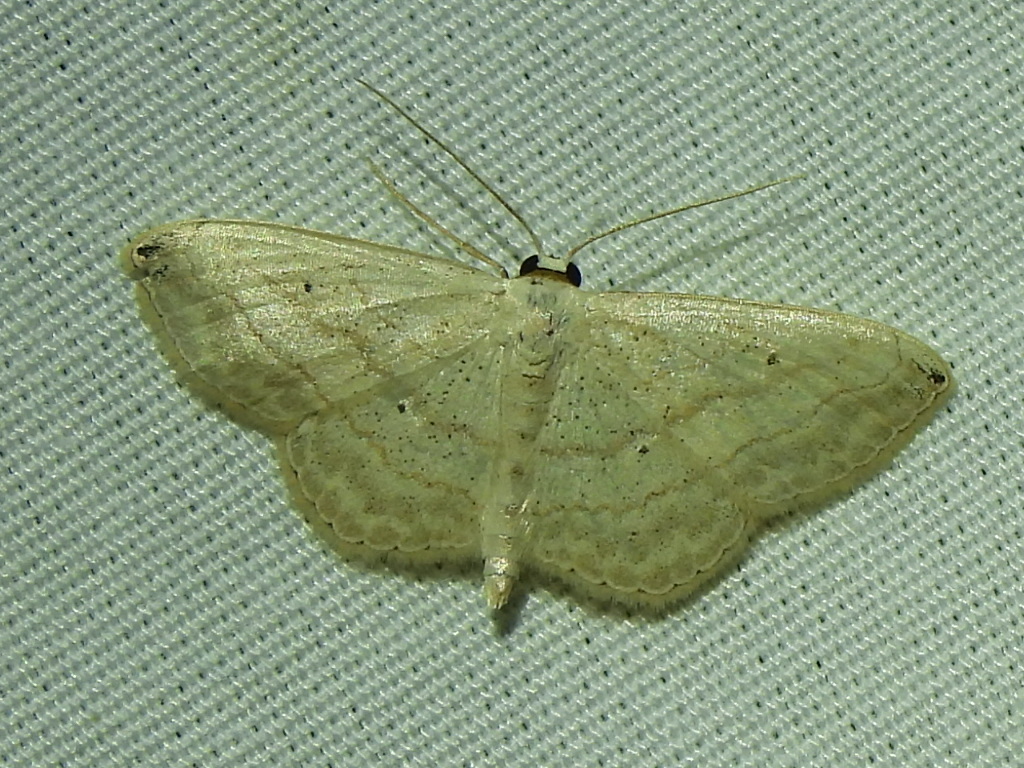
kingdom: Animalia
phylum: Arthropoda
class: Insecta
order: Lepidoptera
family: Geometridae
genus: Scopula
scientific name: Scopula umbilicata
